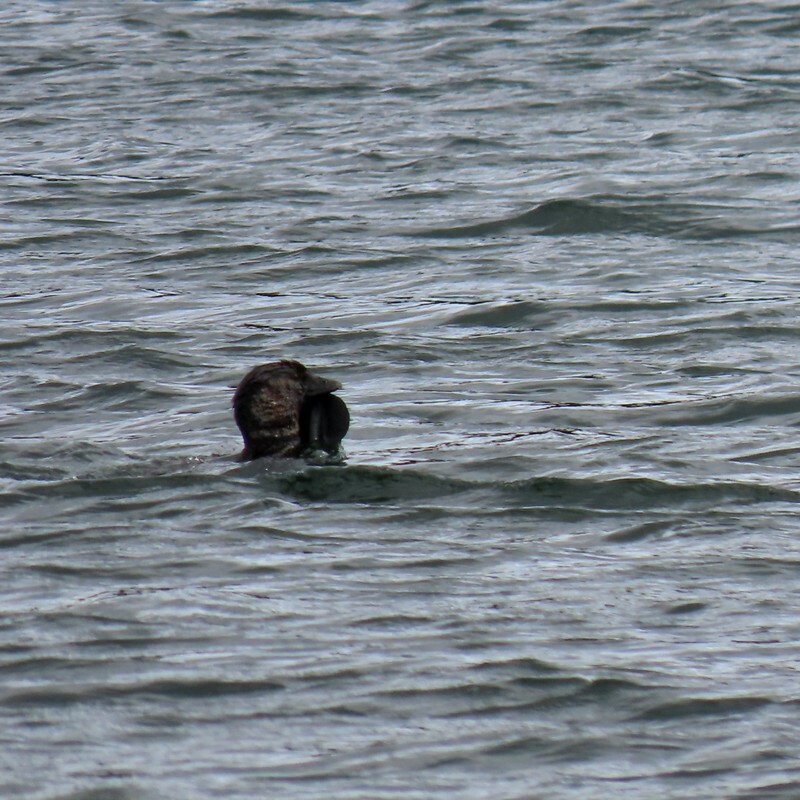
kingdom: Animalia
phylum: Chordata
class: Aves
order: Anseriformes
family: Anatidae
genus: Biziura
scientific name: Biziura lobata
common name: Musk duck
